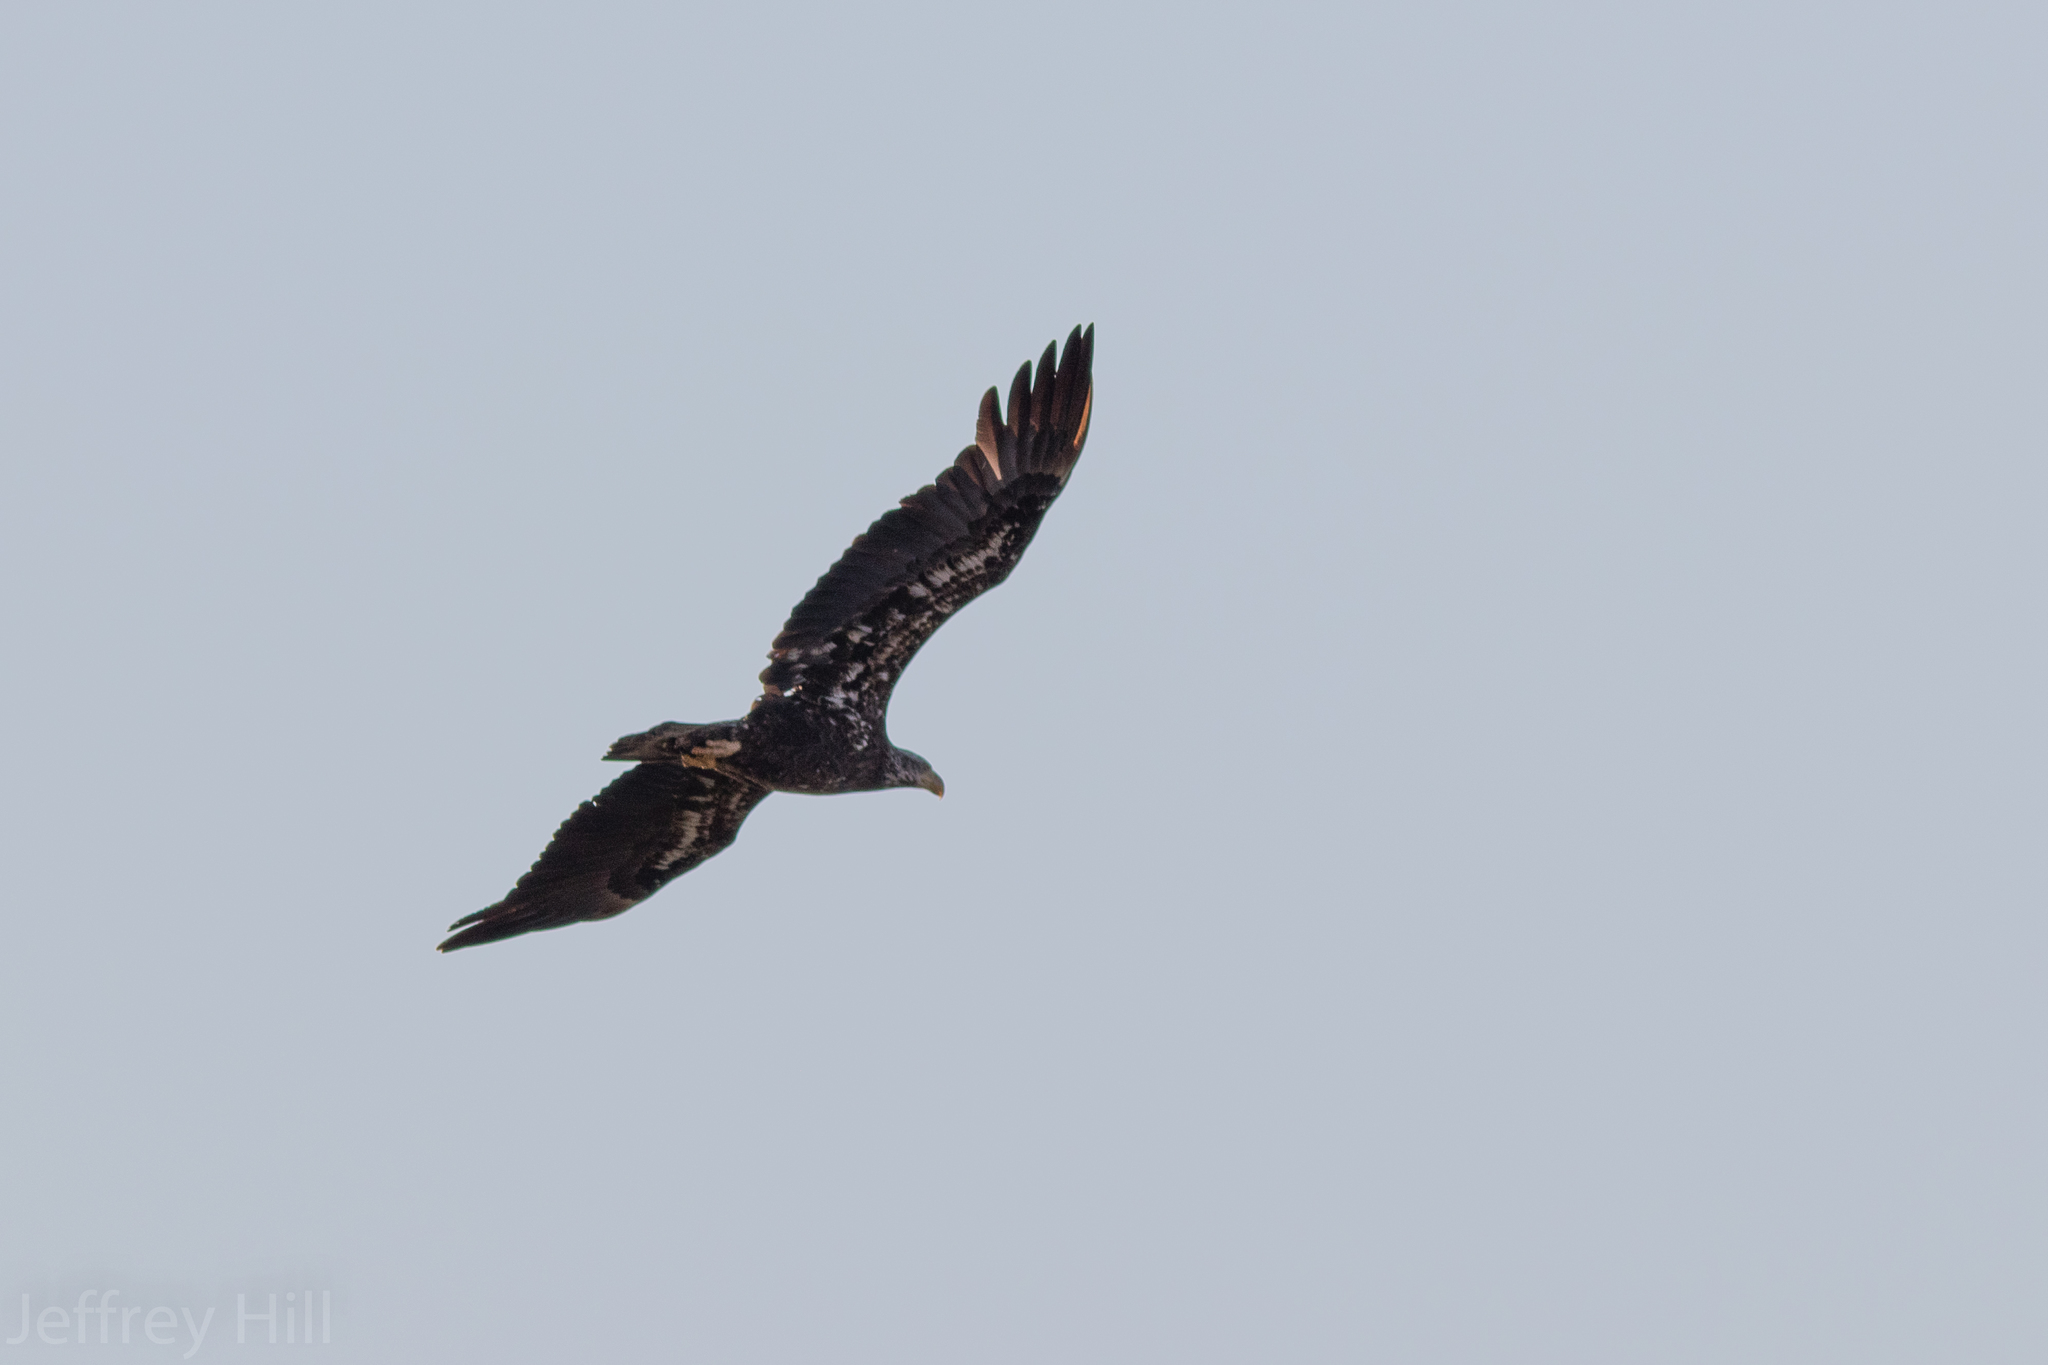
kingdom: Animalia
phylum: Chordata
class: Aves
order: Accipitriformes
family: Accipitridae
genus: Haliaeetus
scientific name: Haliaeetus leucocephalus
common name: Bald eagle
